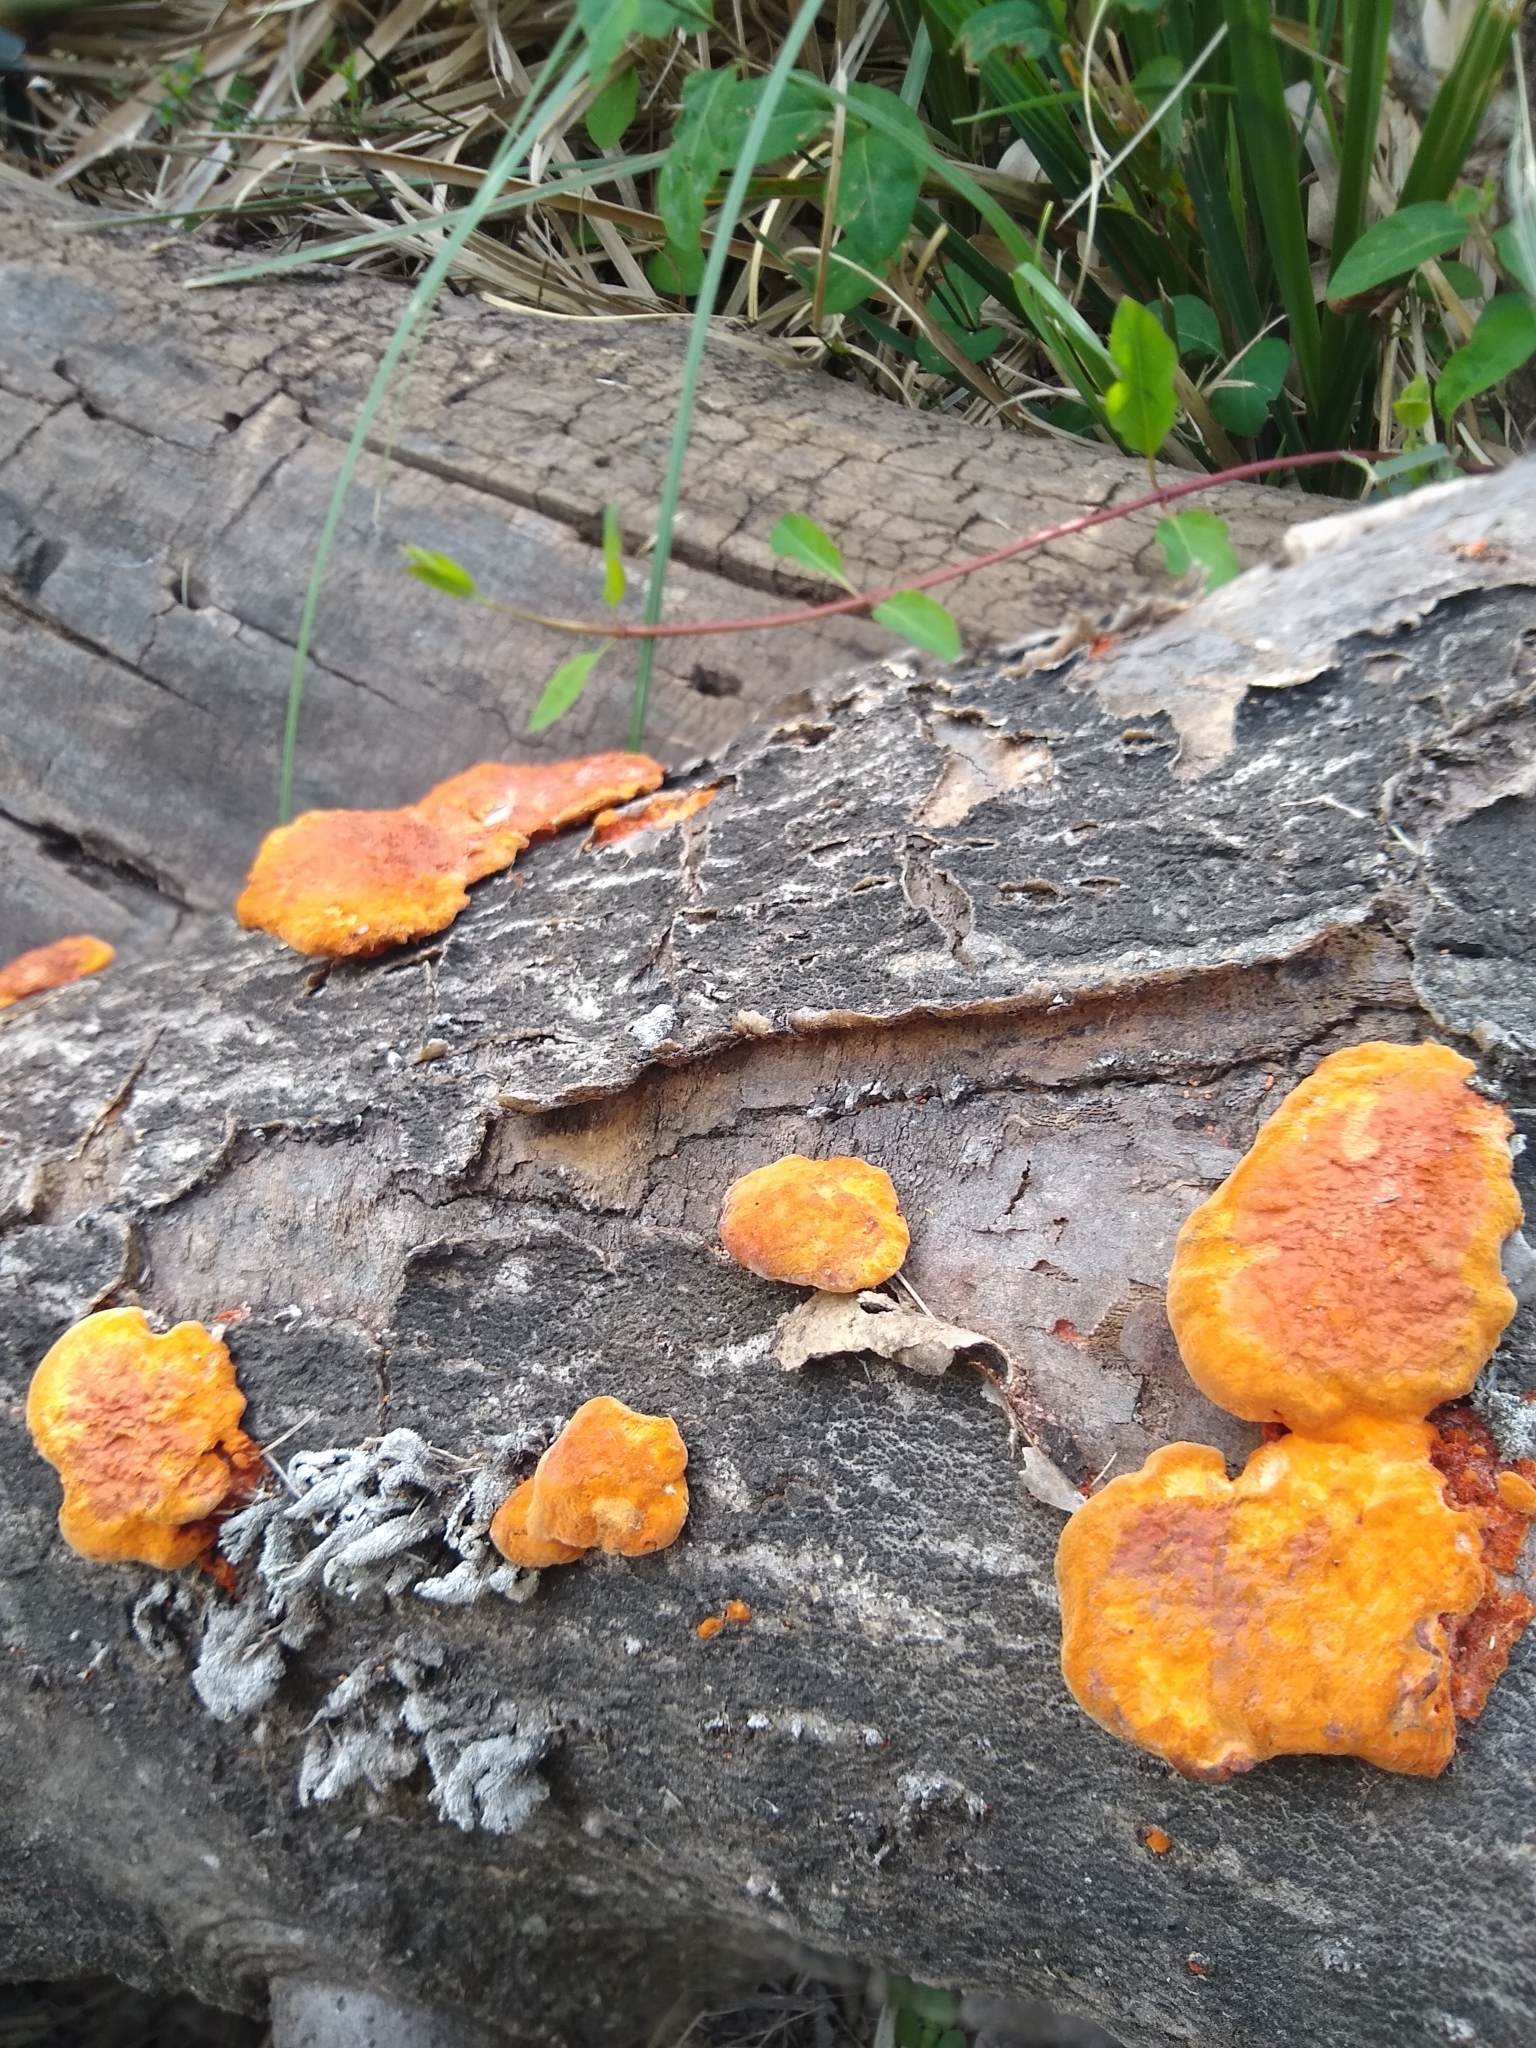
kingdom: Fungi
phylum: Basidiomycota
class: Agaricomycetes
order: Polyporales
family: Polyporaceae
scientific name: Polyporaceae
